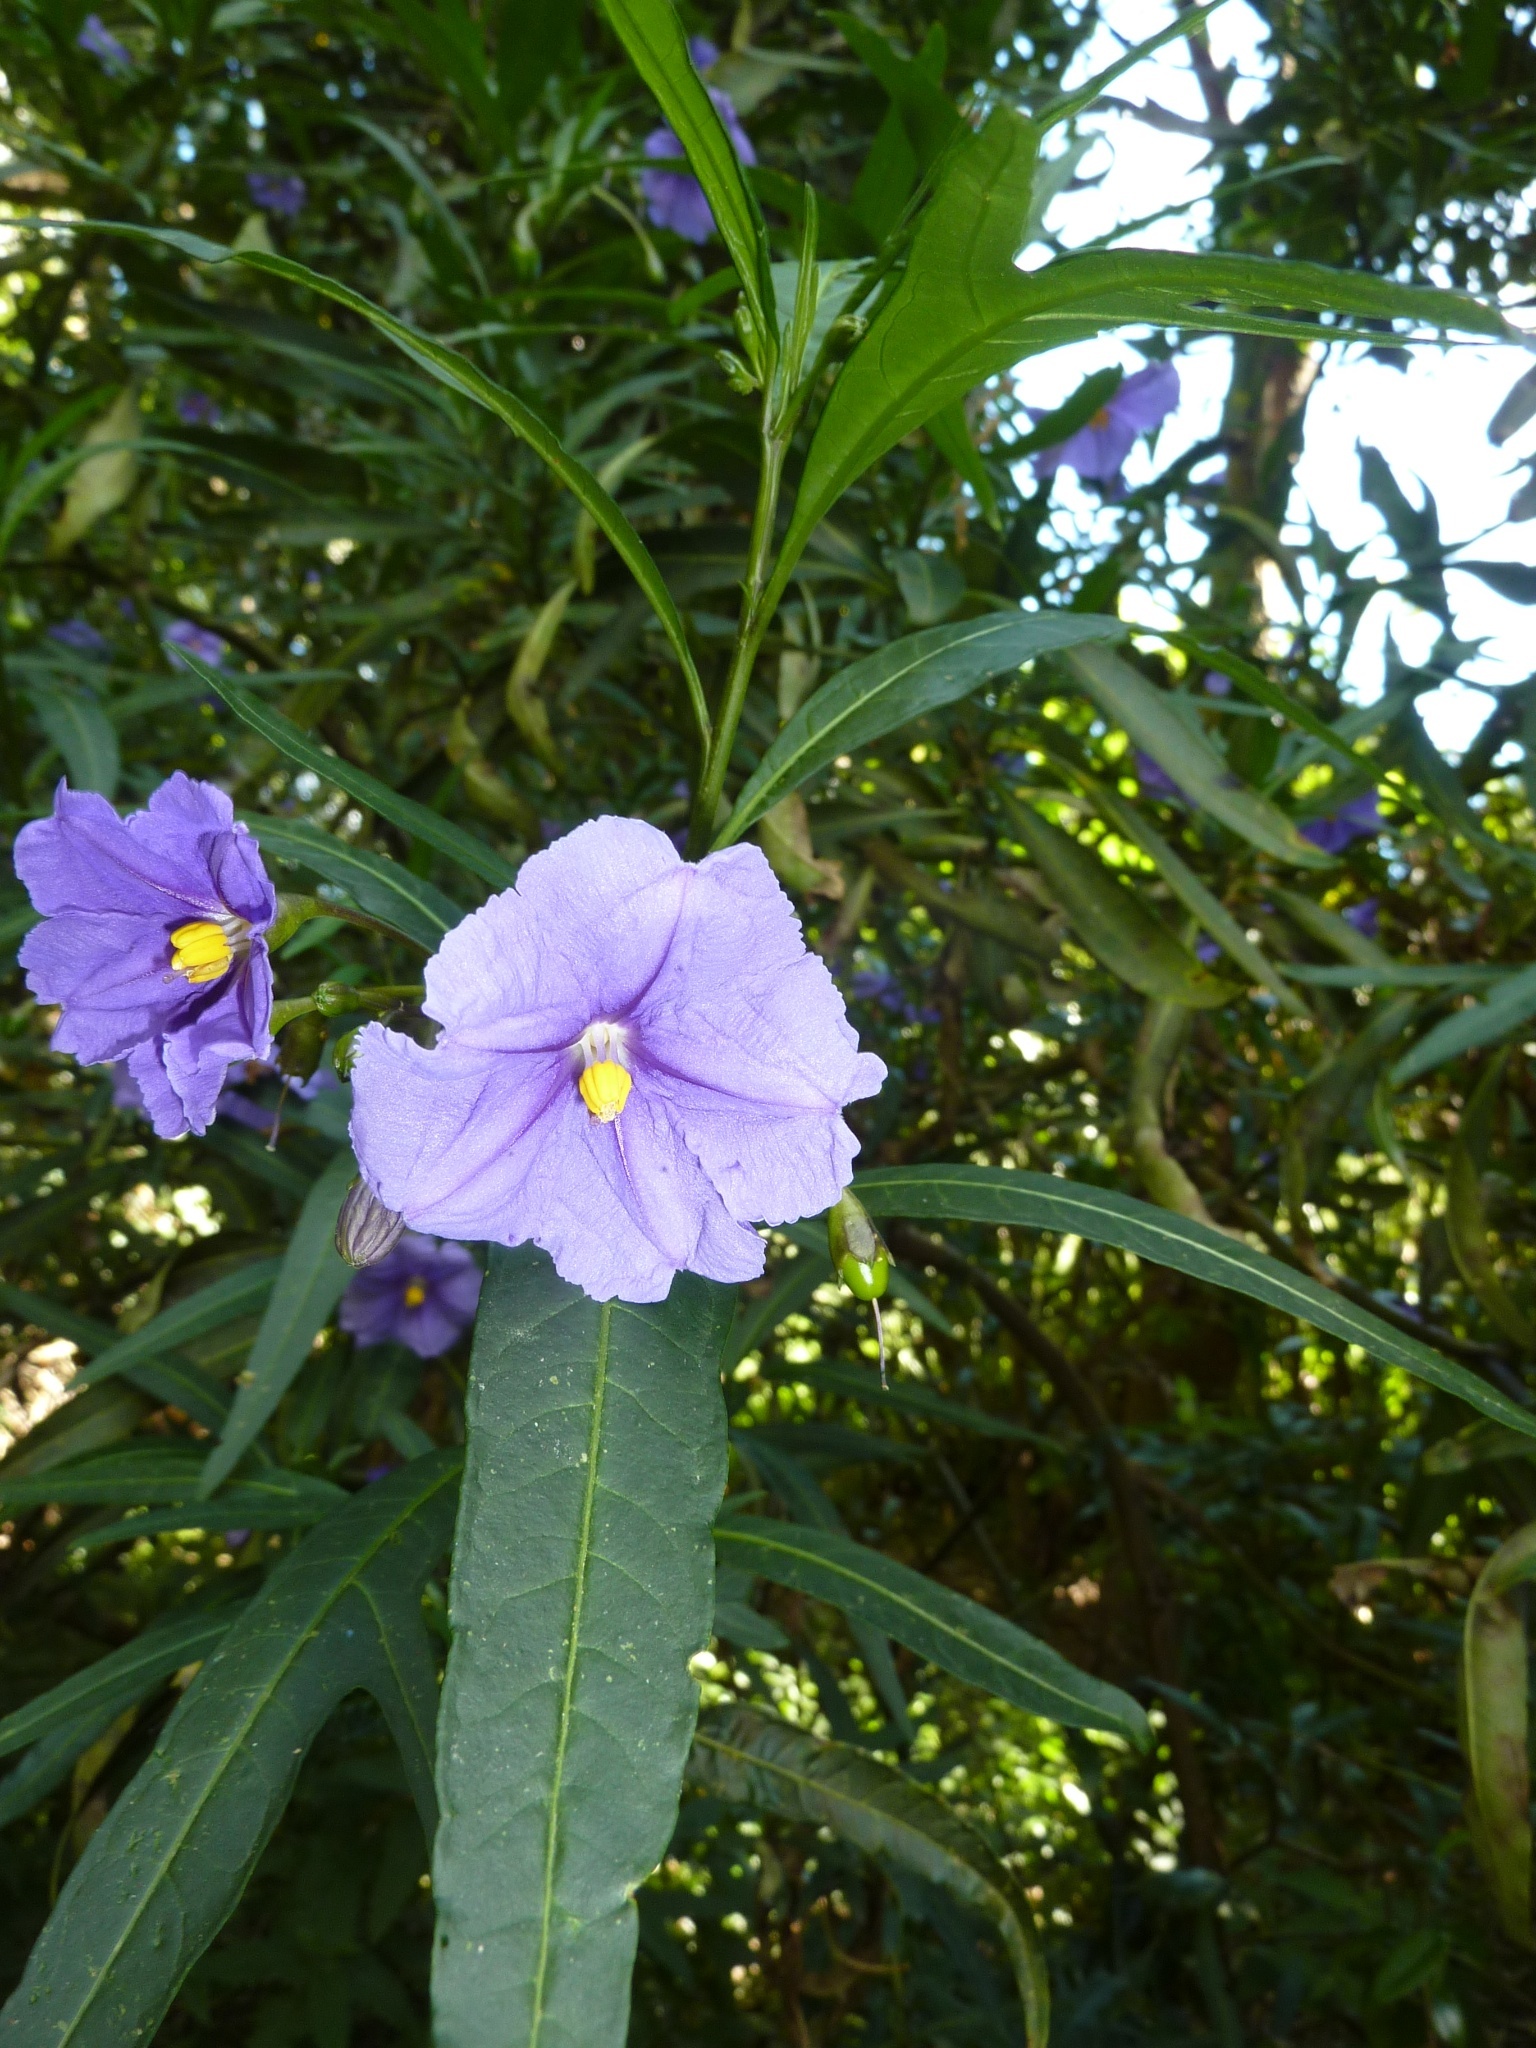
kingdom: Plantae
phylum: Tracheophyta
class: Magnoliopsida
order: Solanales
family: Solanaceae
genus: Solanum
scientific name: Solanum laciniatum
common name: Kangaroo-apple
